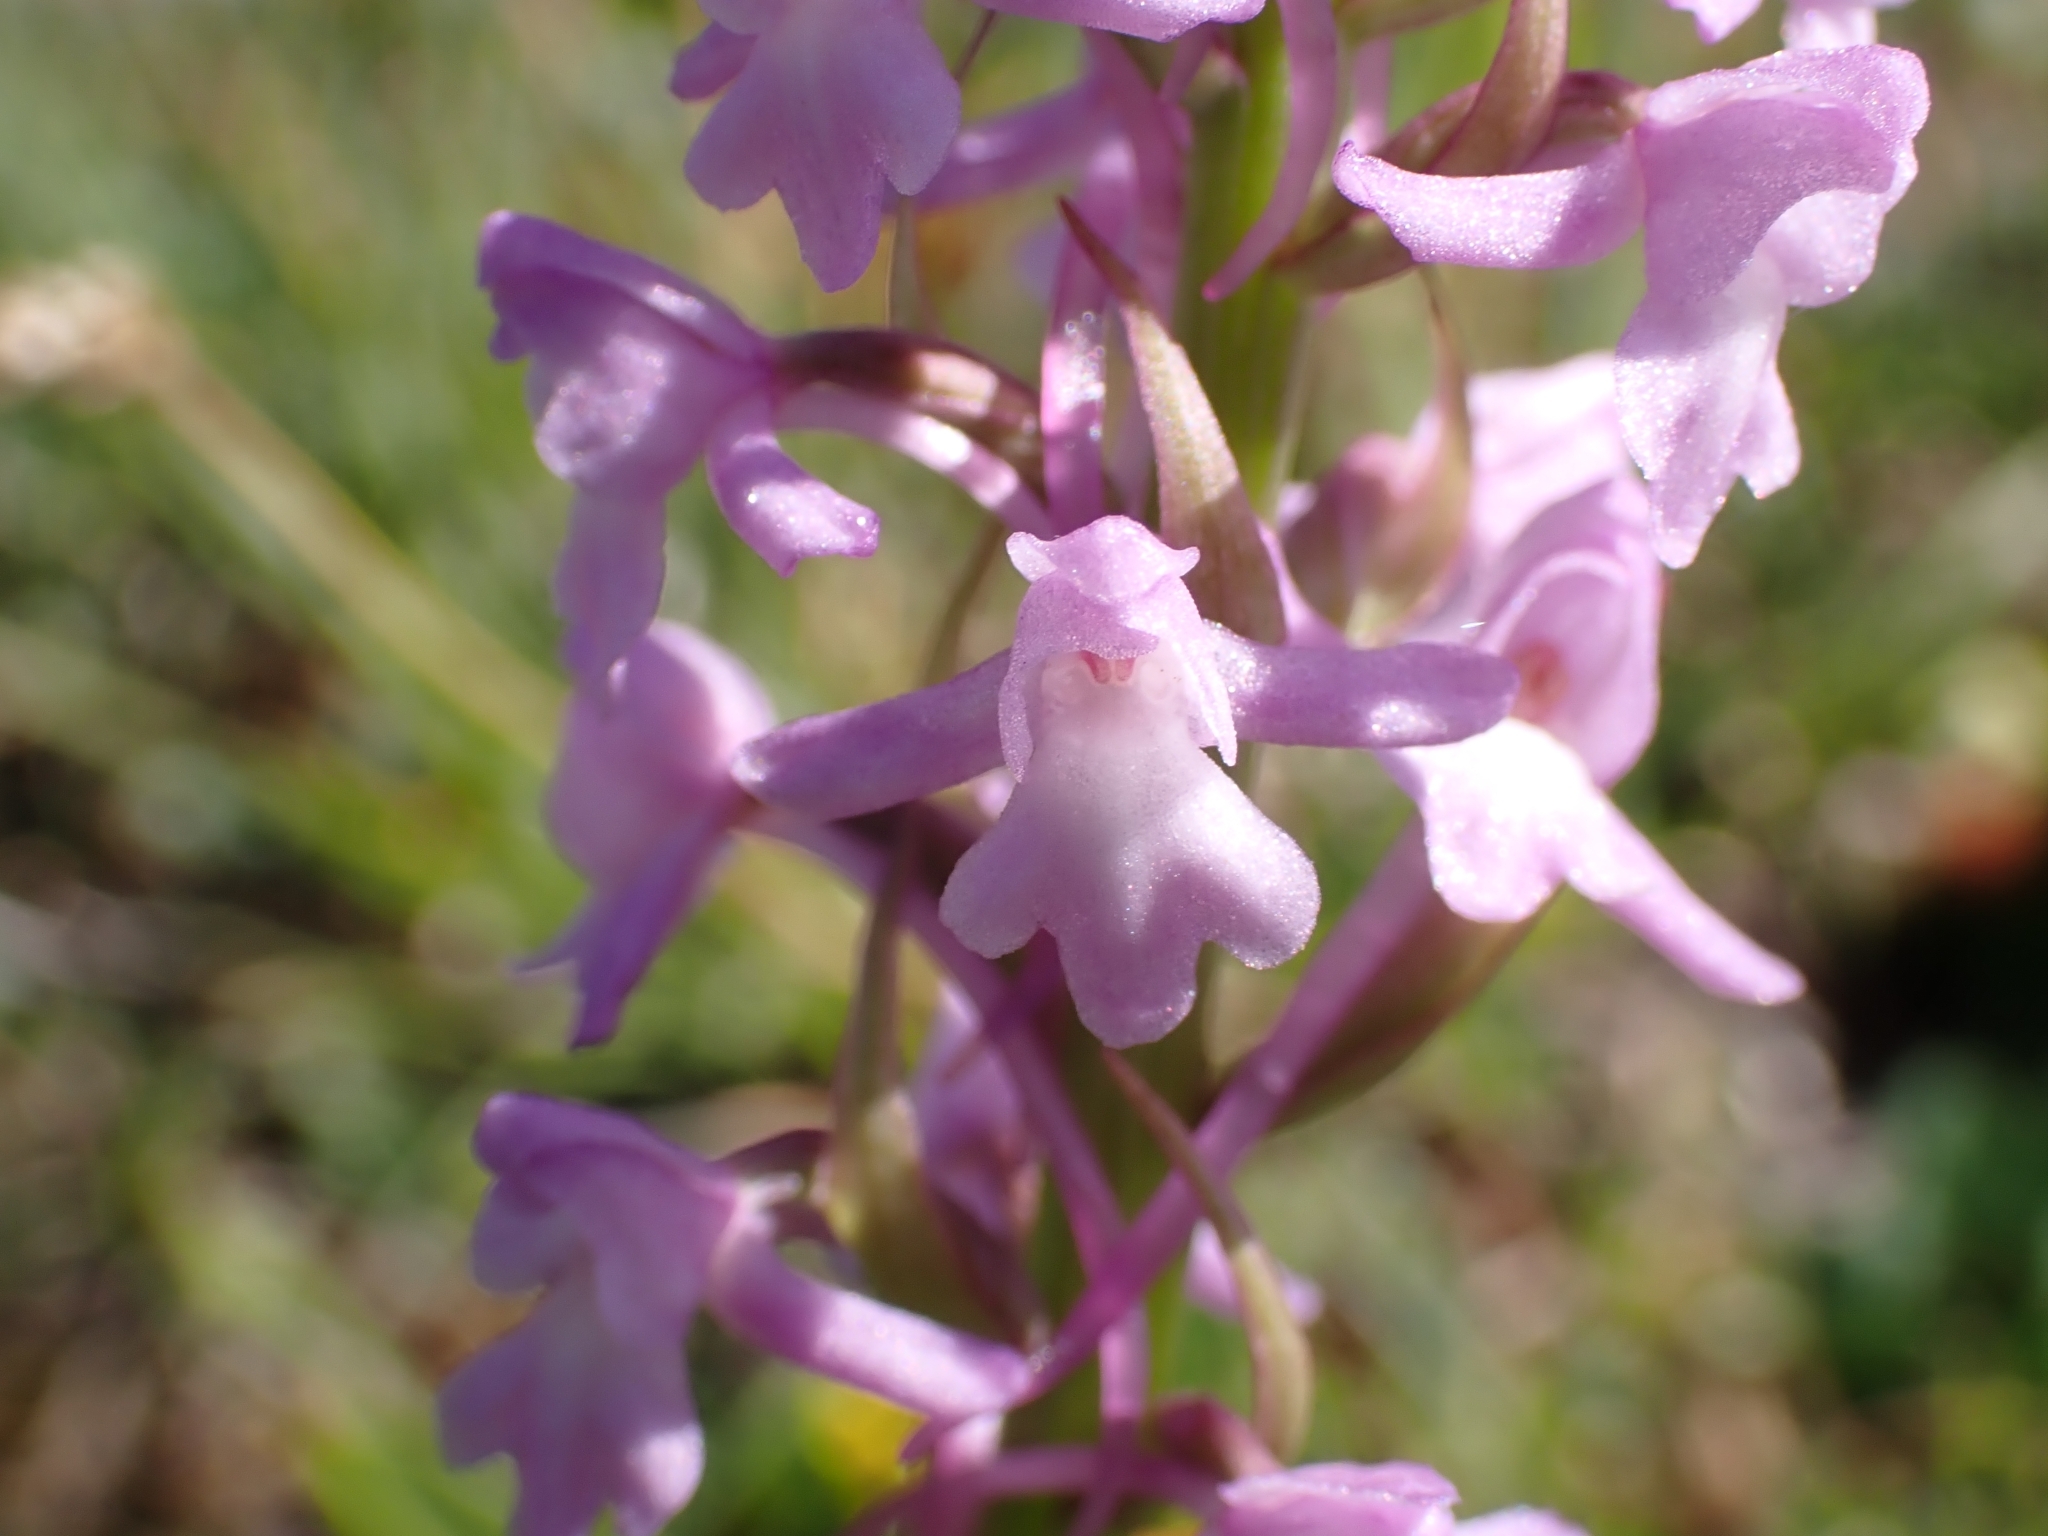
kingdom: Plantae
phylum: Tracheophyta
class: Liliopsida
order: Asparagales
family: Orchidaceae
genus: Gymnadenia
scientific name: Gymnadenia conopsea
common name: Fragrant orchid
